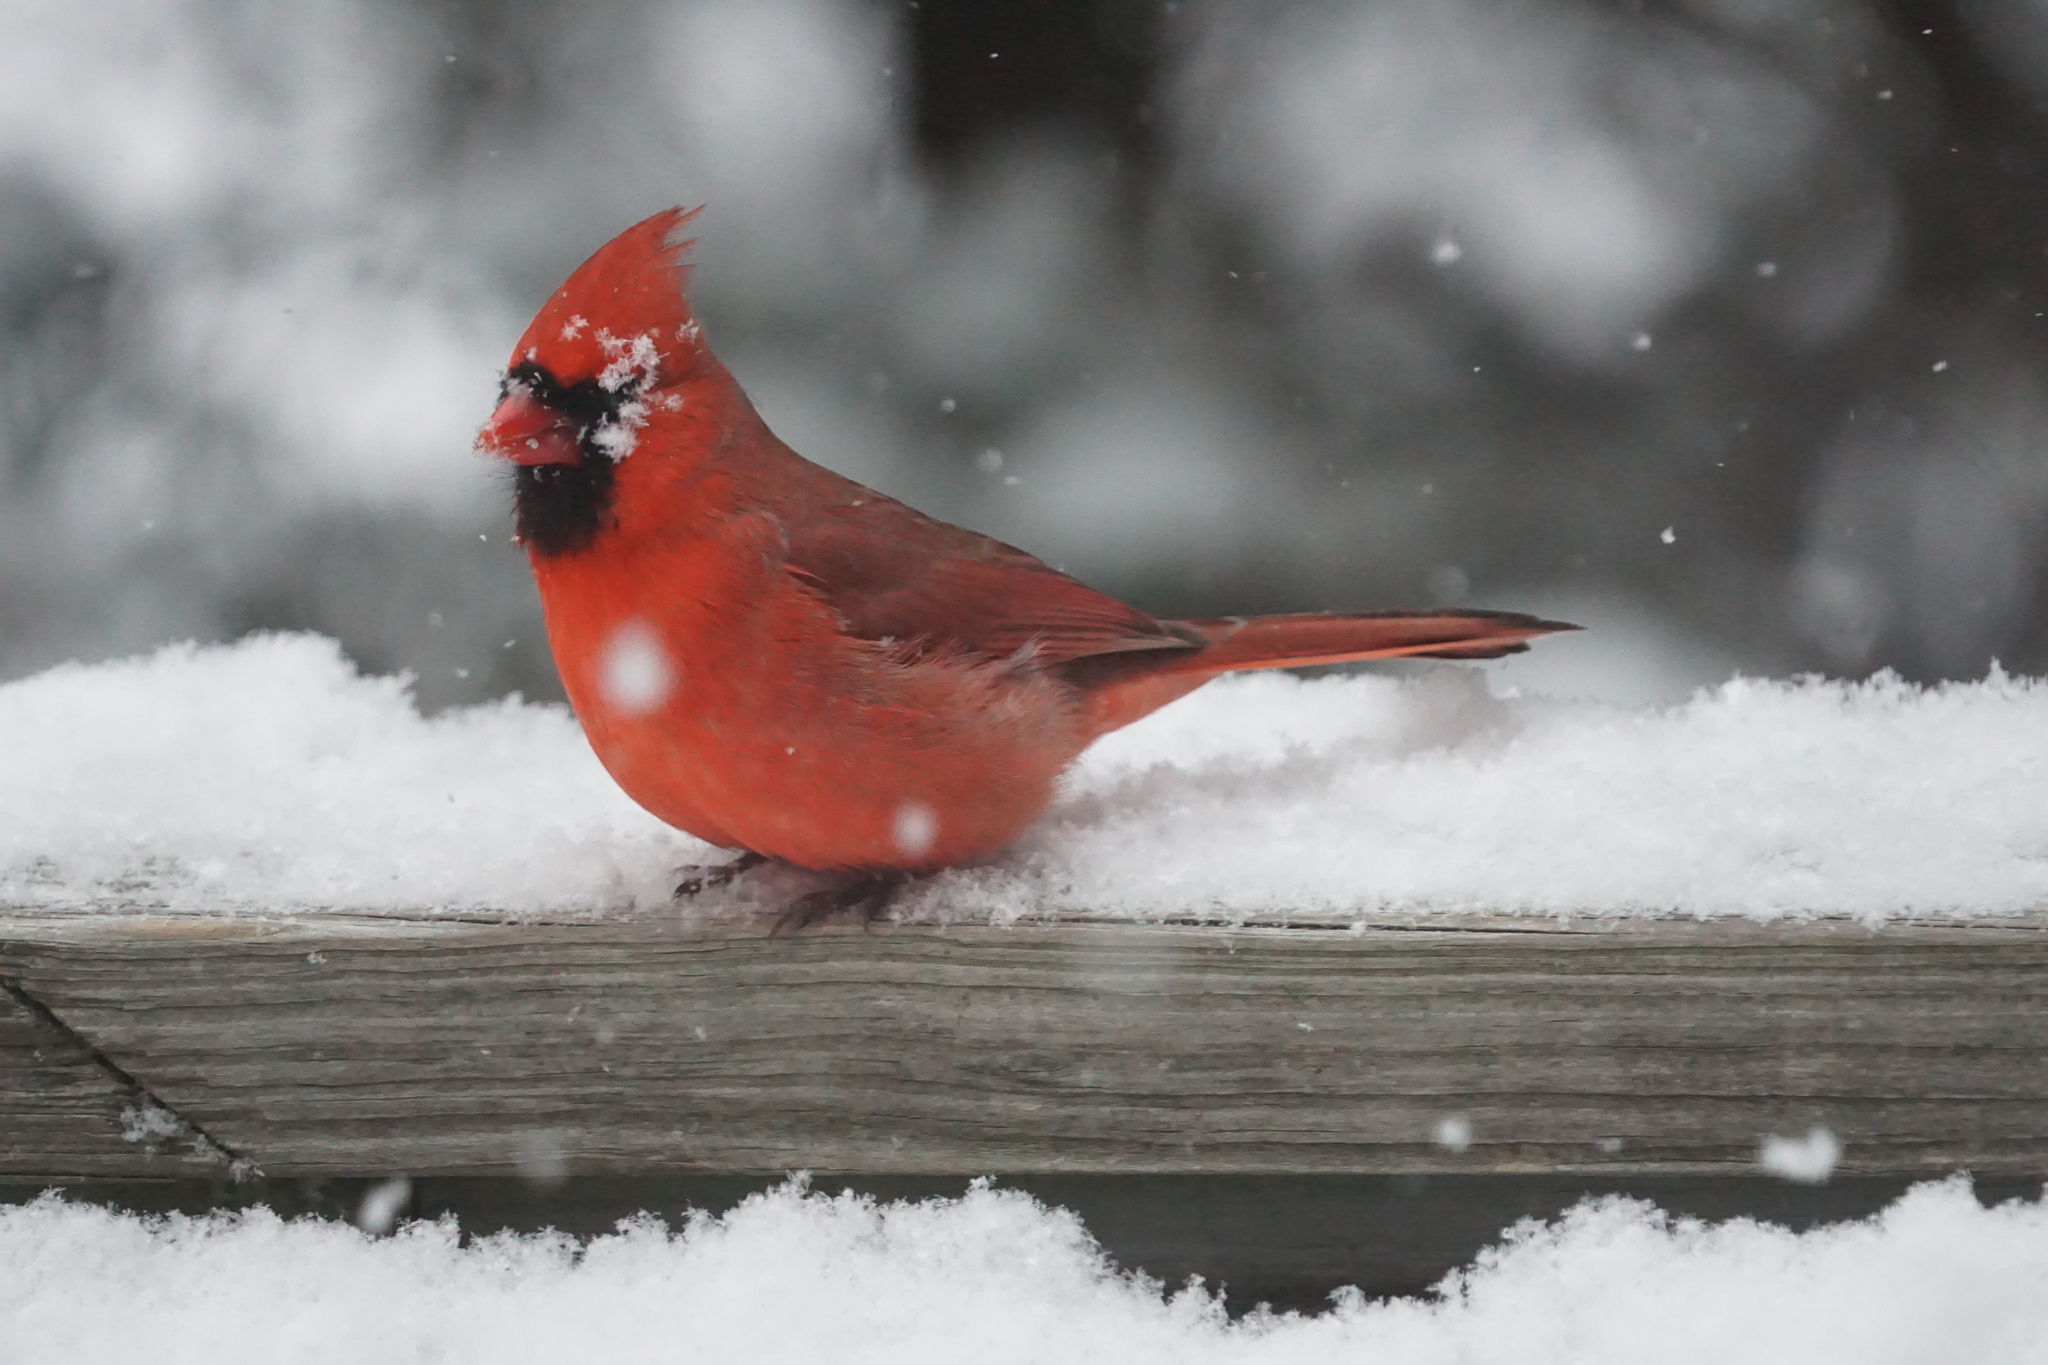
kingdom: Animalia
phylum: Chordata
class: Aves
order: Passeriformes
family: Cardinalidae
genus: Cardinalis
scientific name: Cardinalis cardinalis
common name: Northern cardinal
